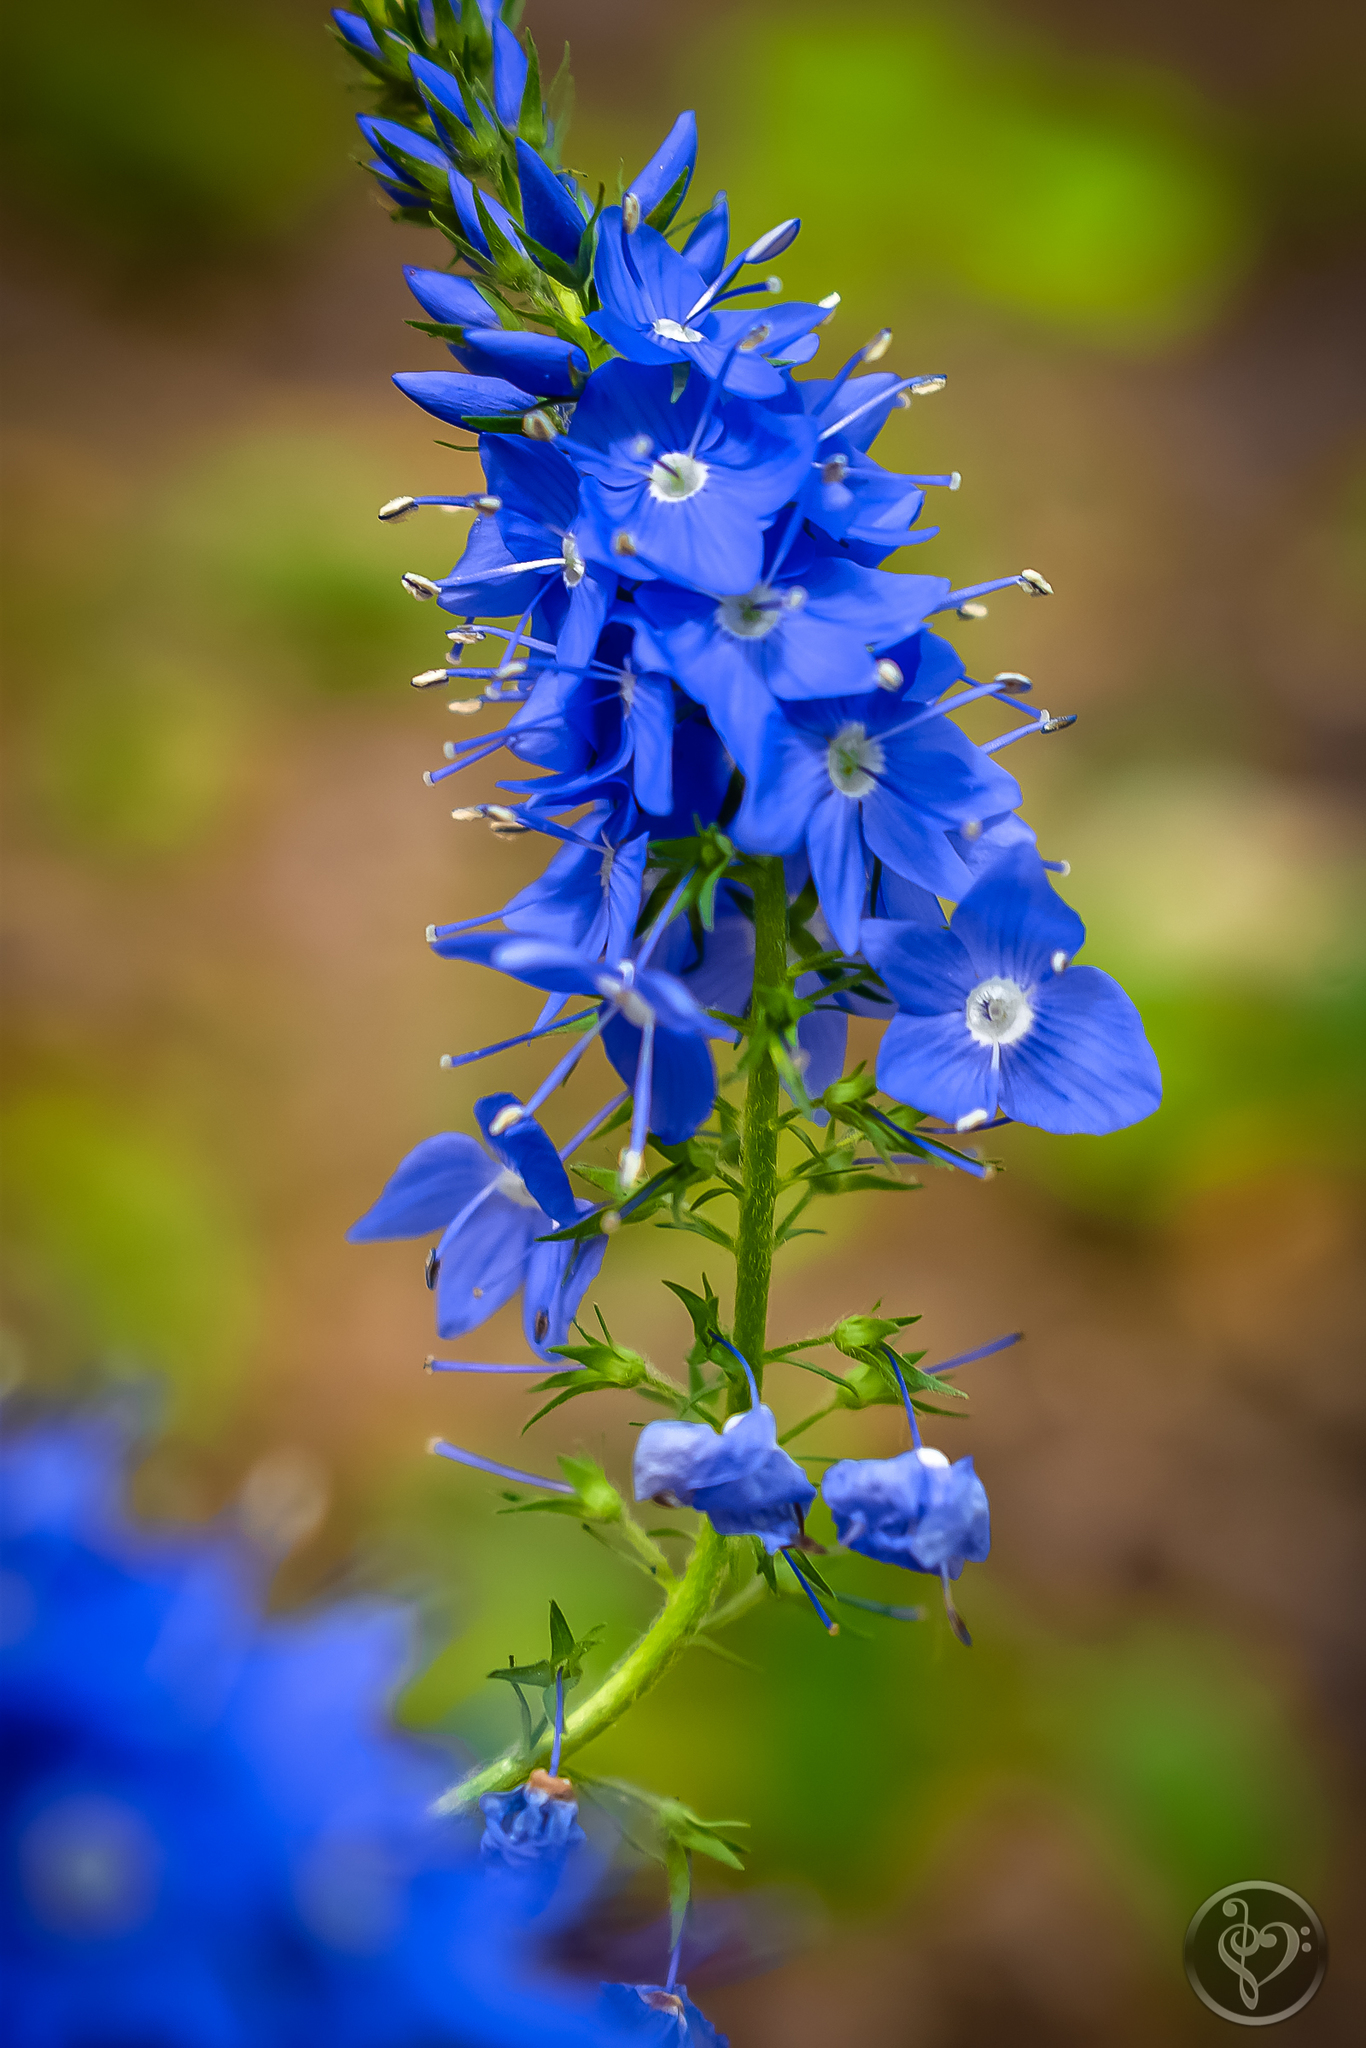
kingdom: Plantae
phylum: Tracheophyta
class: Magnoliopsida
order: Lamiales
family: Plantaginaceae
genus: Veronica
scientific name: Veronica teucrium
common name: Large speedwell
